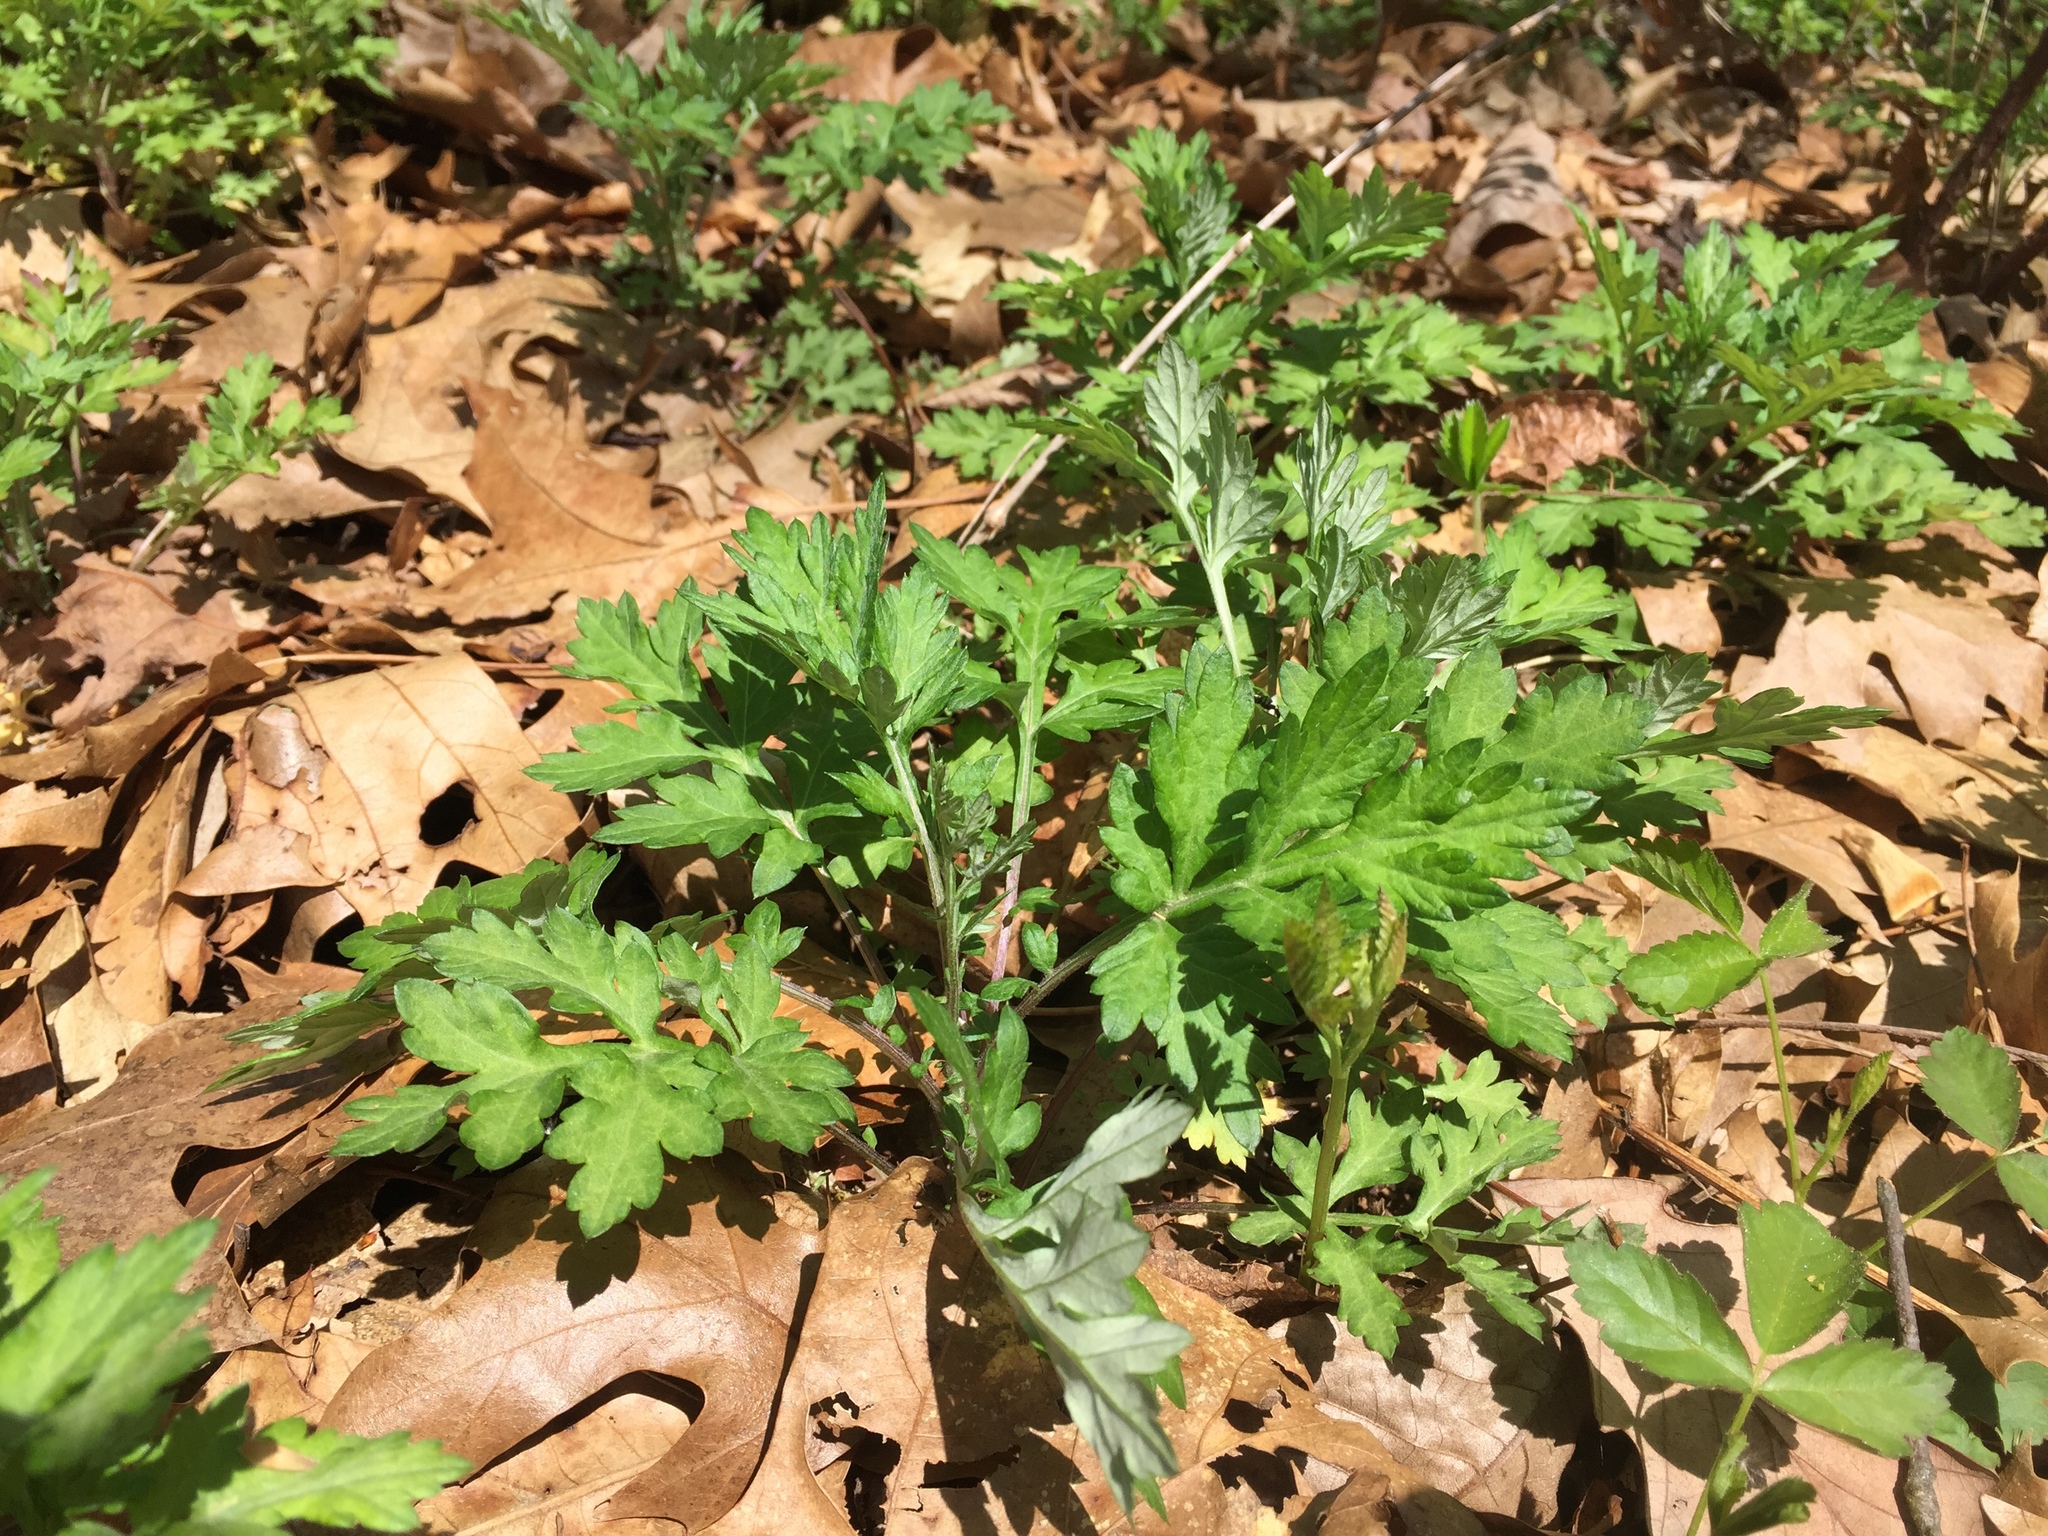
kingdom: Plantae
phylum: Tracheophyta
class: Magnoliopsida
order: Asterales
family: Asteraceae
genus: Artemisia
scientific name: Artemisia vulgaris
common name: Mugwort
